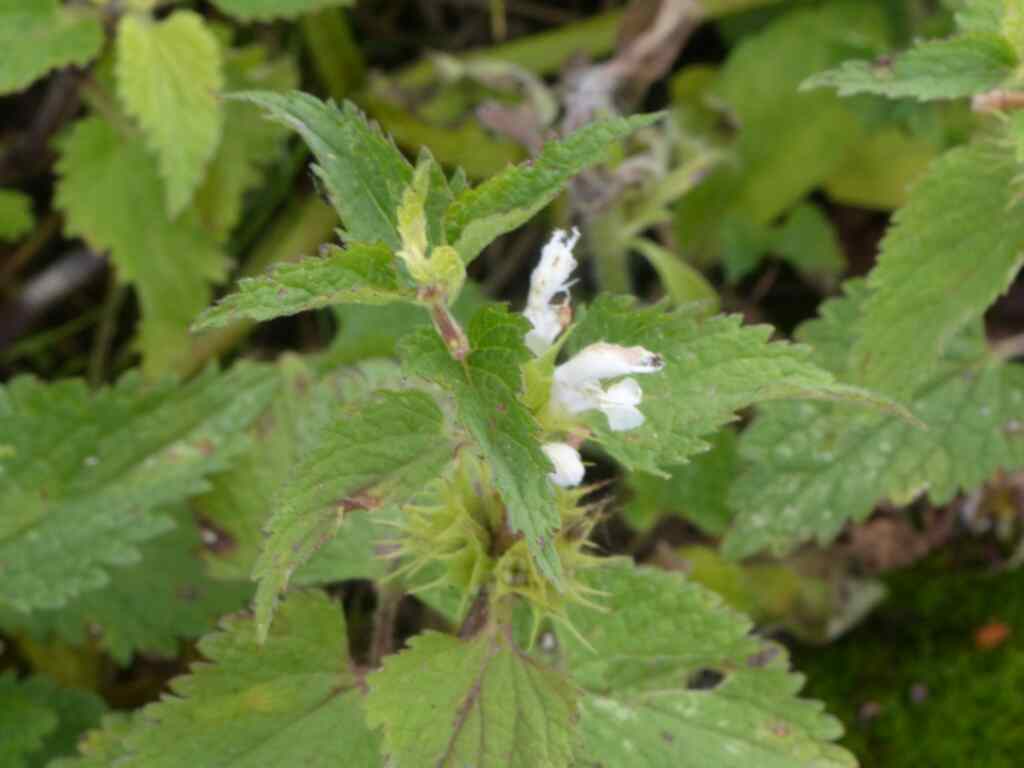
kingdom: Plantae
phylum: Tracheophyta
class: Magnoliopsida
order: Lamiales
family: Lamiaceae
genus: Galeopsis
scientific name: Galeopsis tetrahit
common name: Common hemp-nettle
